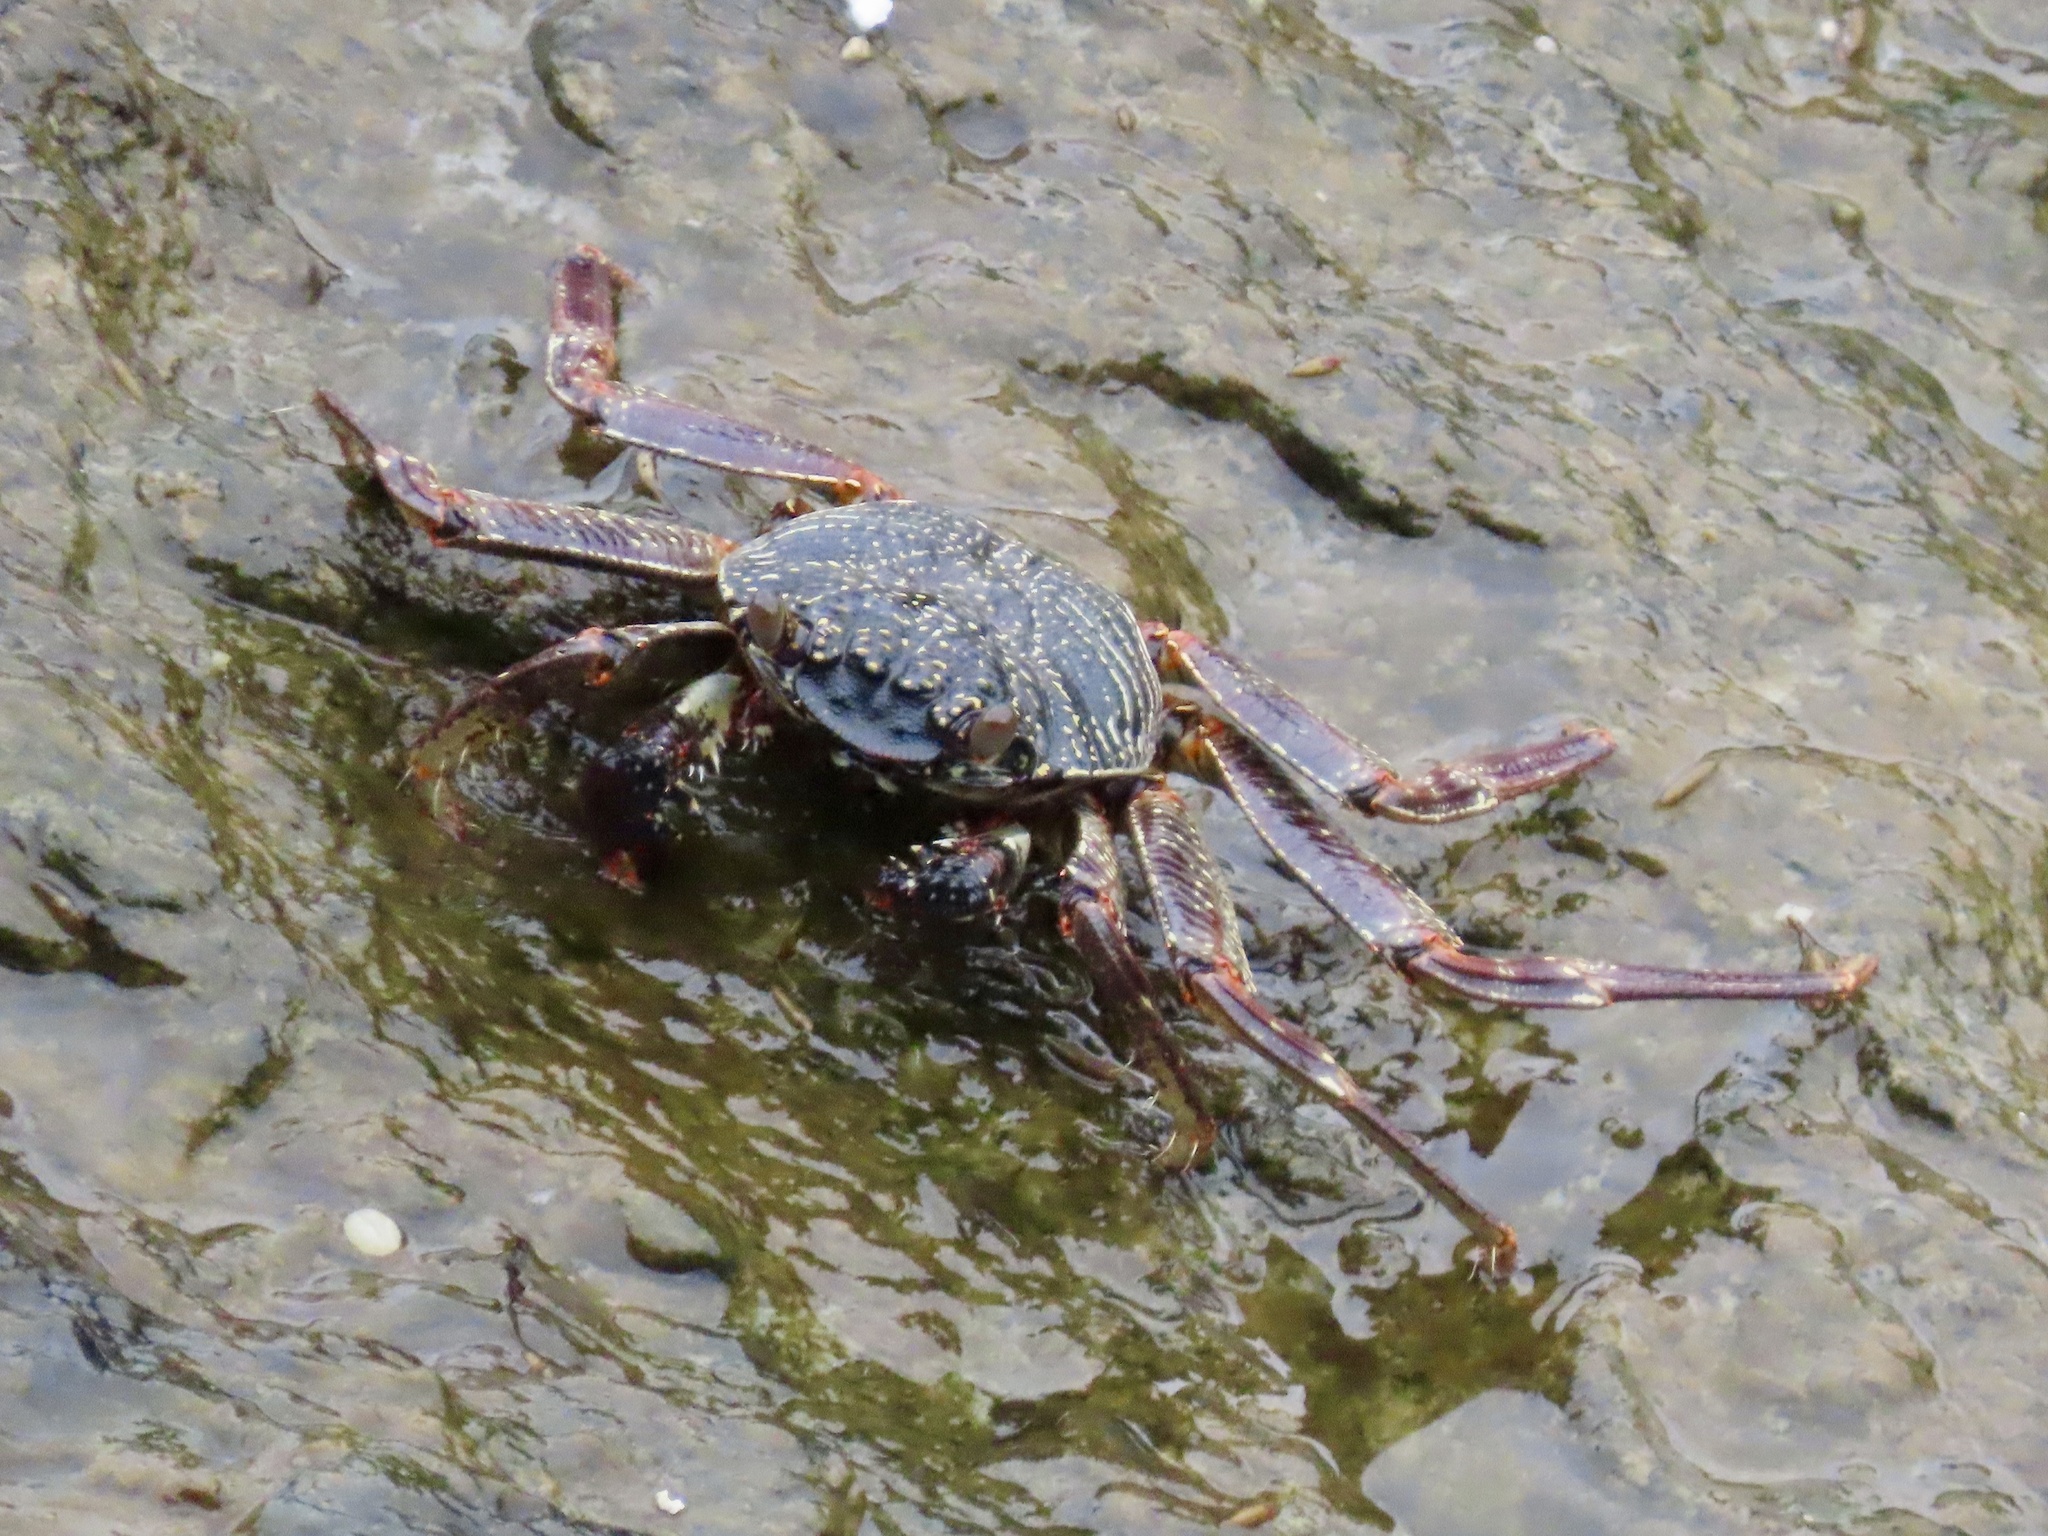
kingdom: Animalia
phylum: Arthropoda
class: Malacostraca
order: Decapoda
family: Grapsidae
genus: Grapsus
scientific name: Grapsus tenuicrustatus
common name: Natal lightfoot crab
